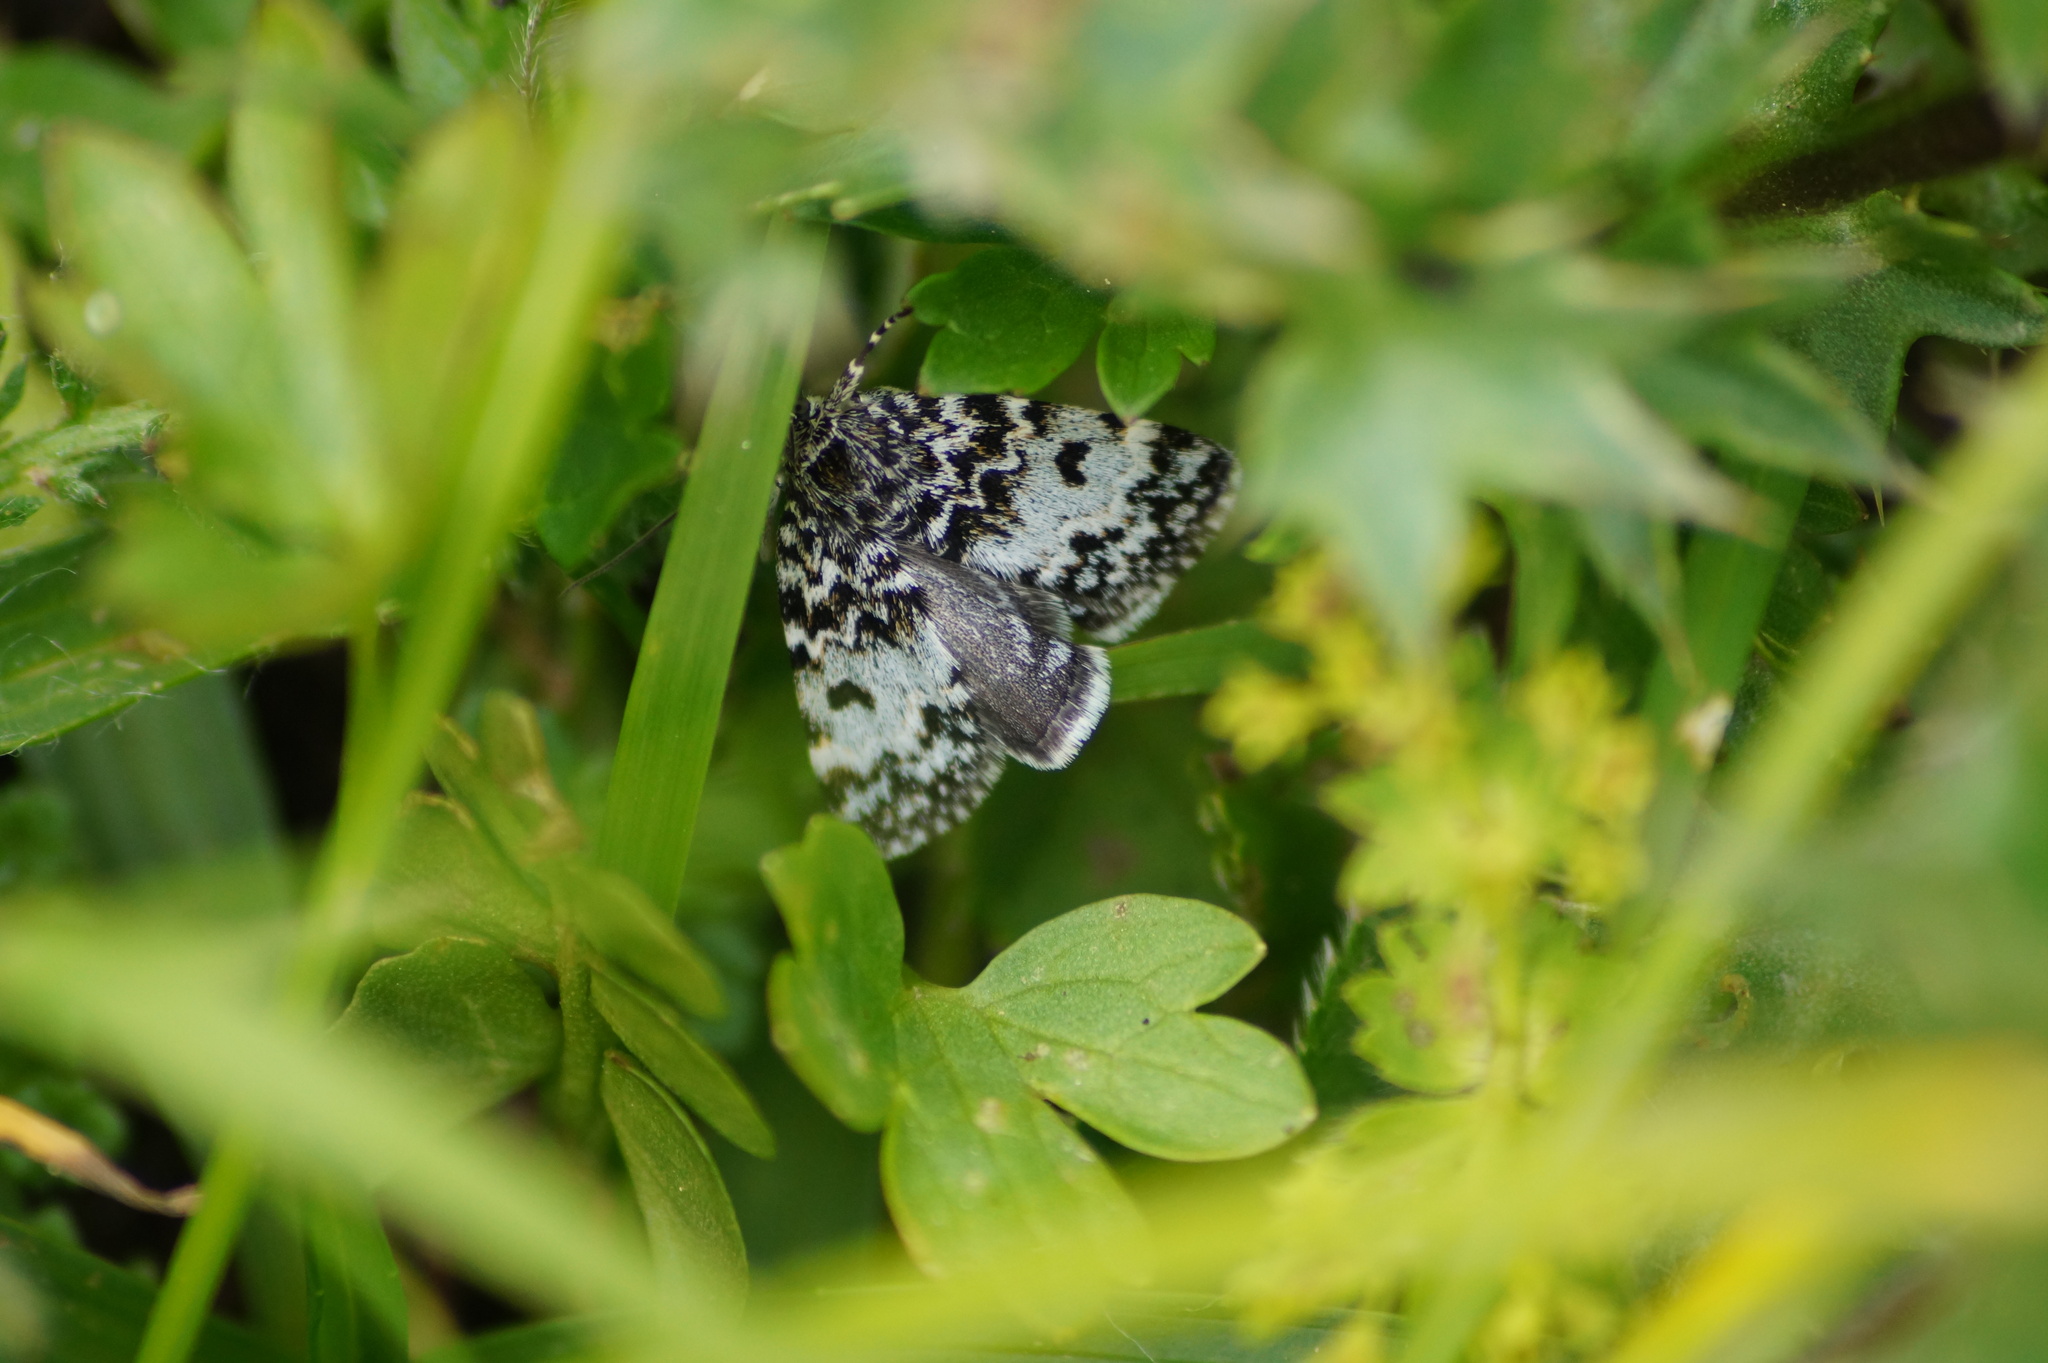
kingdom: Animalia
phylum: Arthropoda
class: Insecta
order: Lepidoptera
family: Crambidae
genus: Orenaia
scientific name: Orenaia alpestralis
